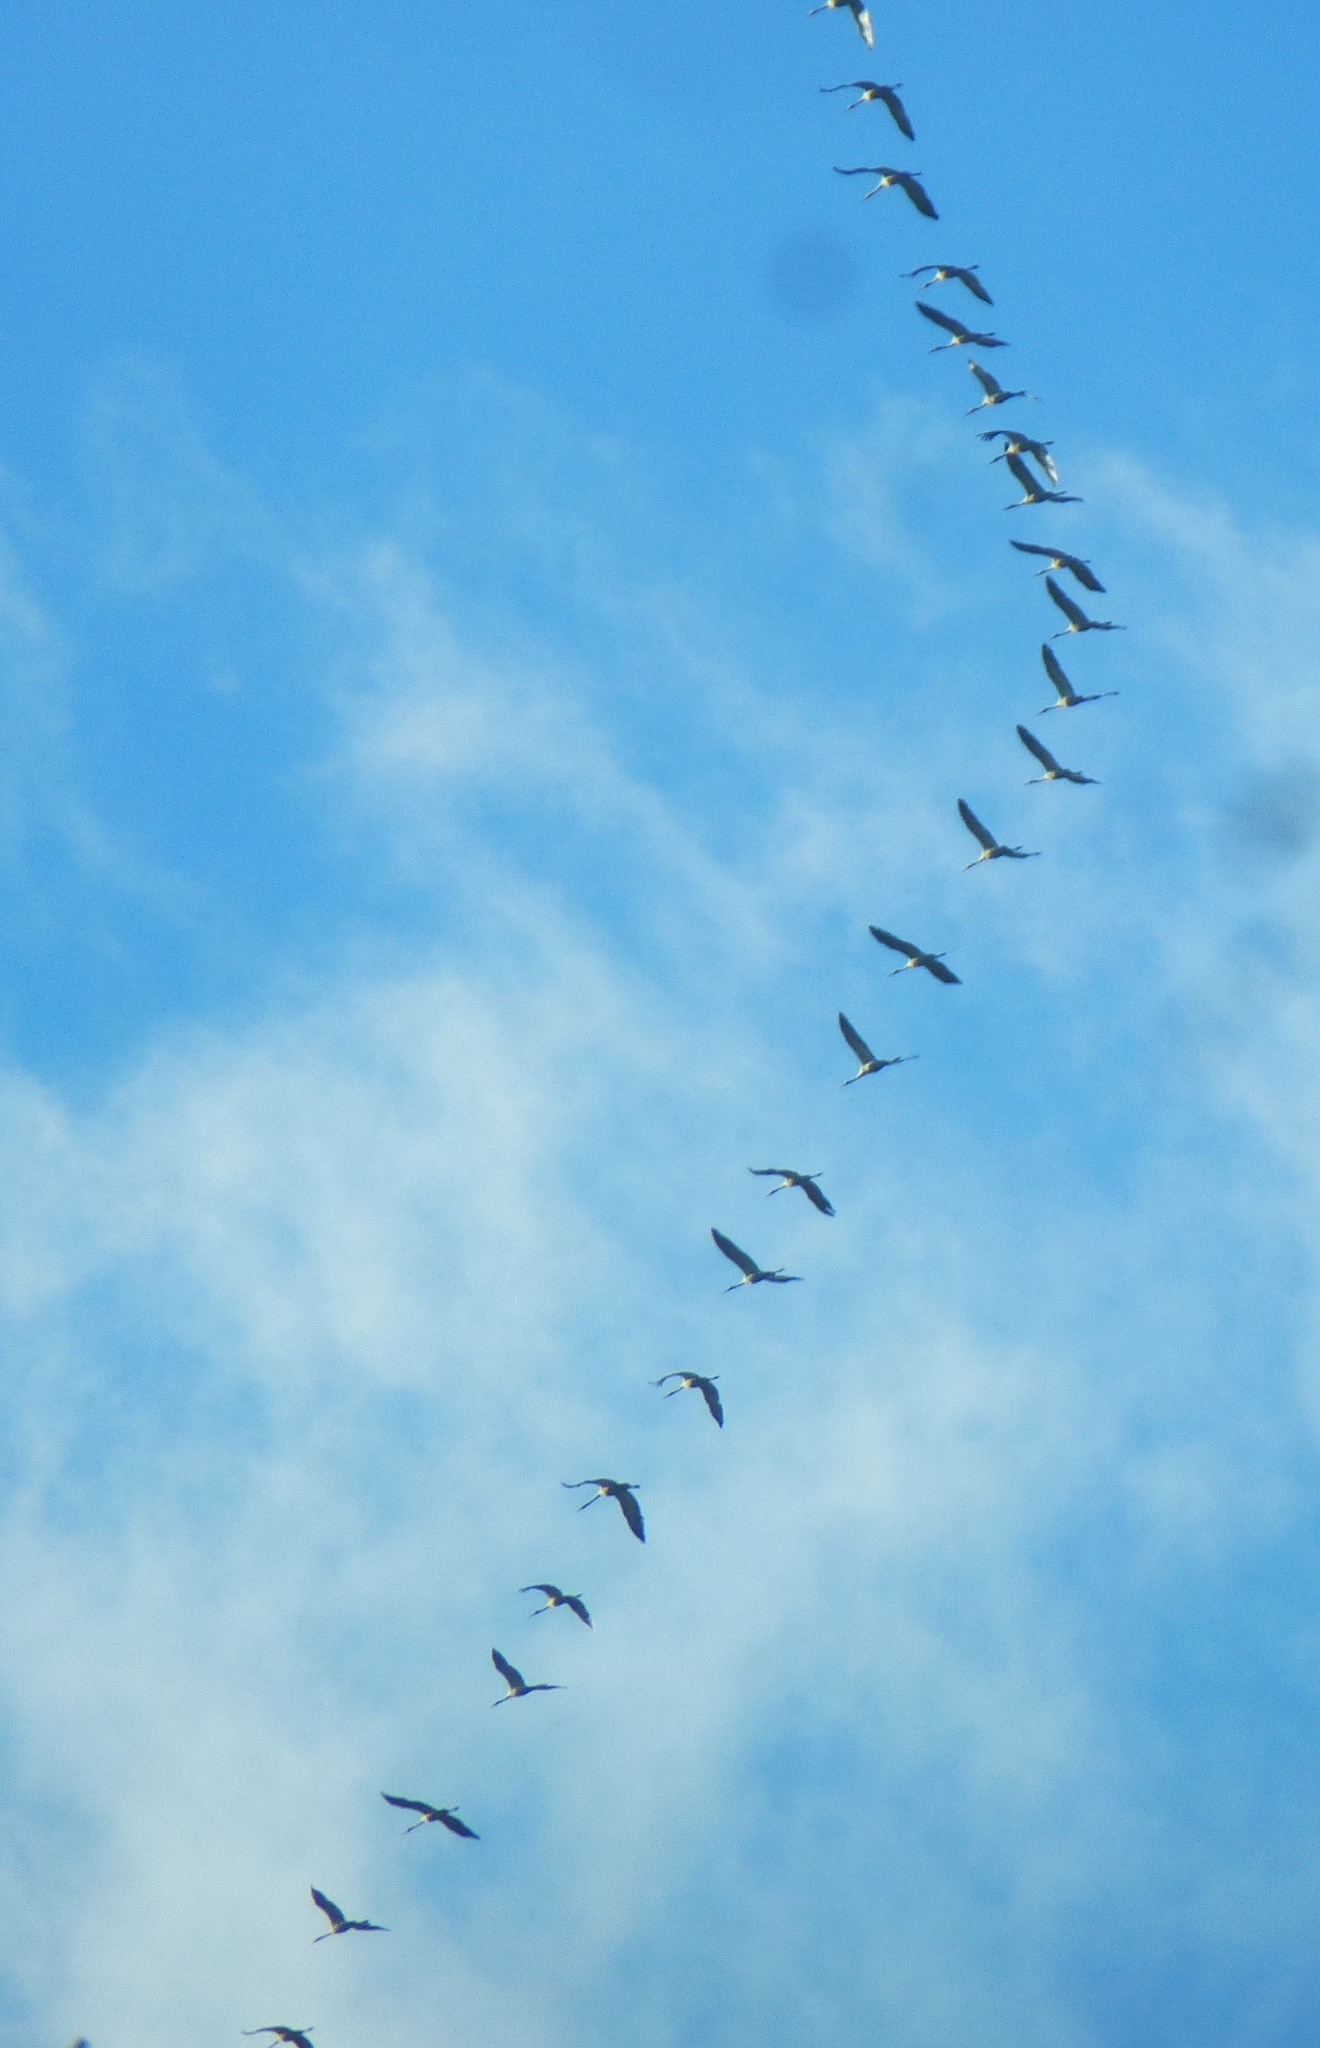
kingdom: Animalia
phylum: Chordata
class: Aves
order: Gruiformes
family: Gruidae
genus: Grus
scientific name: Grus grus
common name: Common crane
